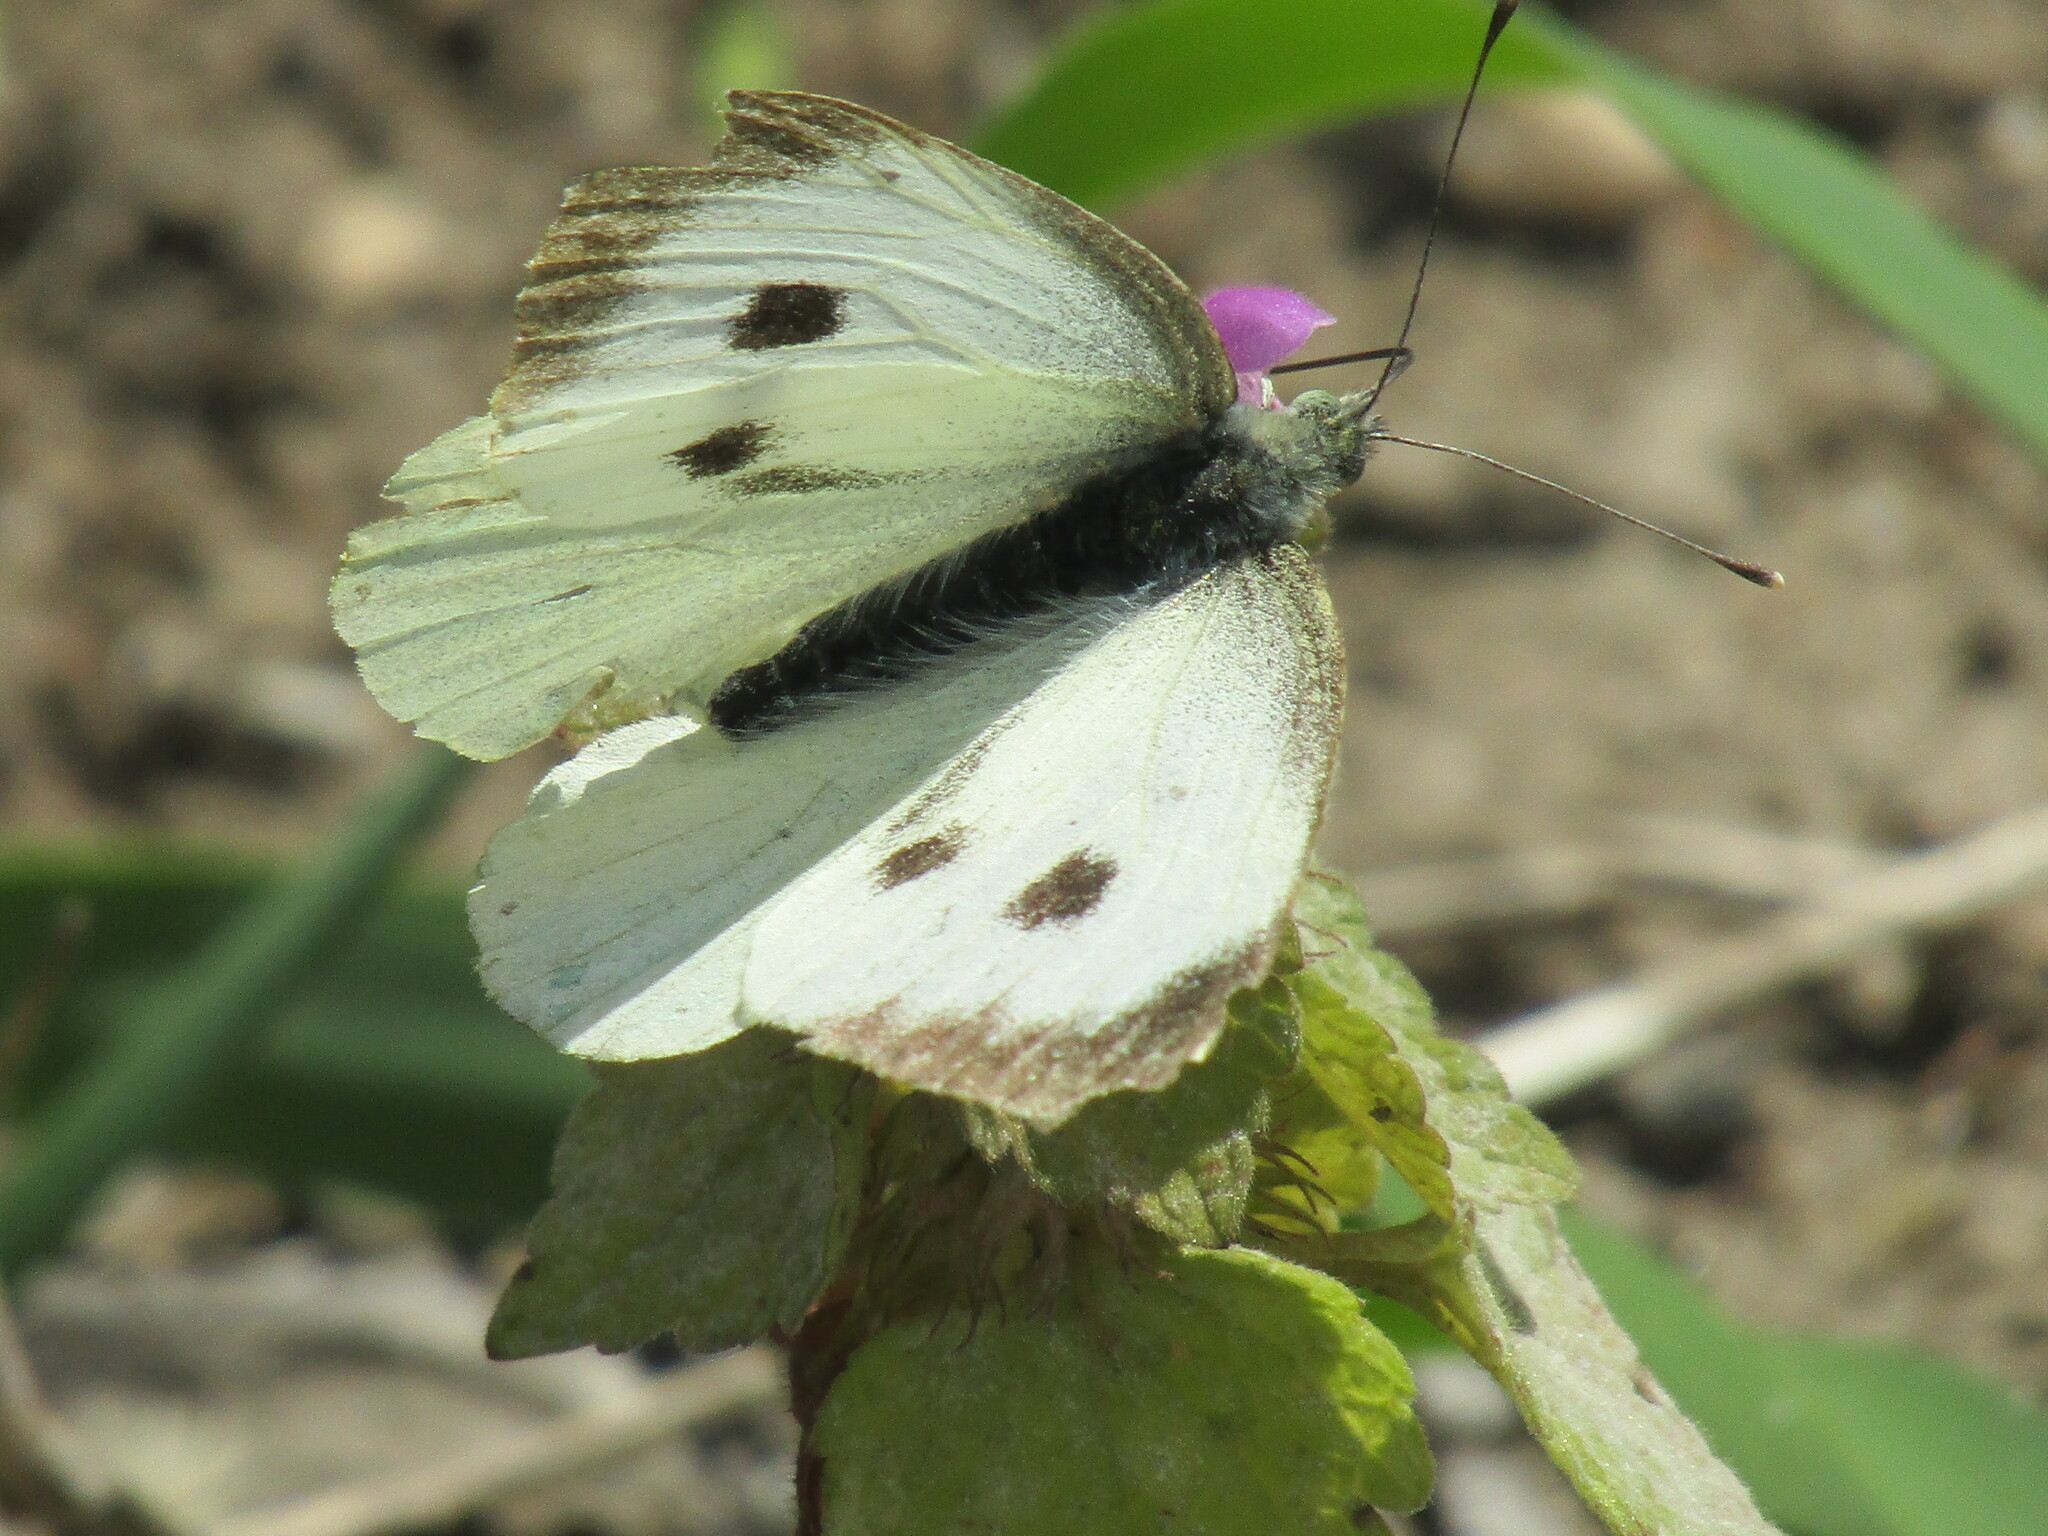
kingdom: Animalia
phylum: Arthropoda
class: Insecta
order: Lepidoptera
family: Pieridae
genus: Pieris
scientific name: Pieris brassicae
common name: Large white
